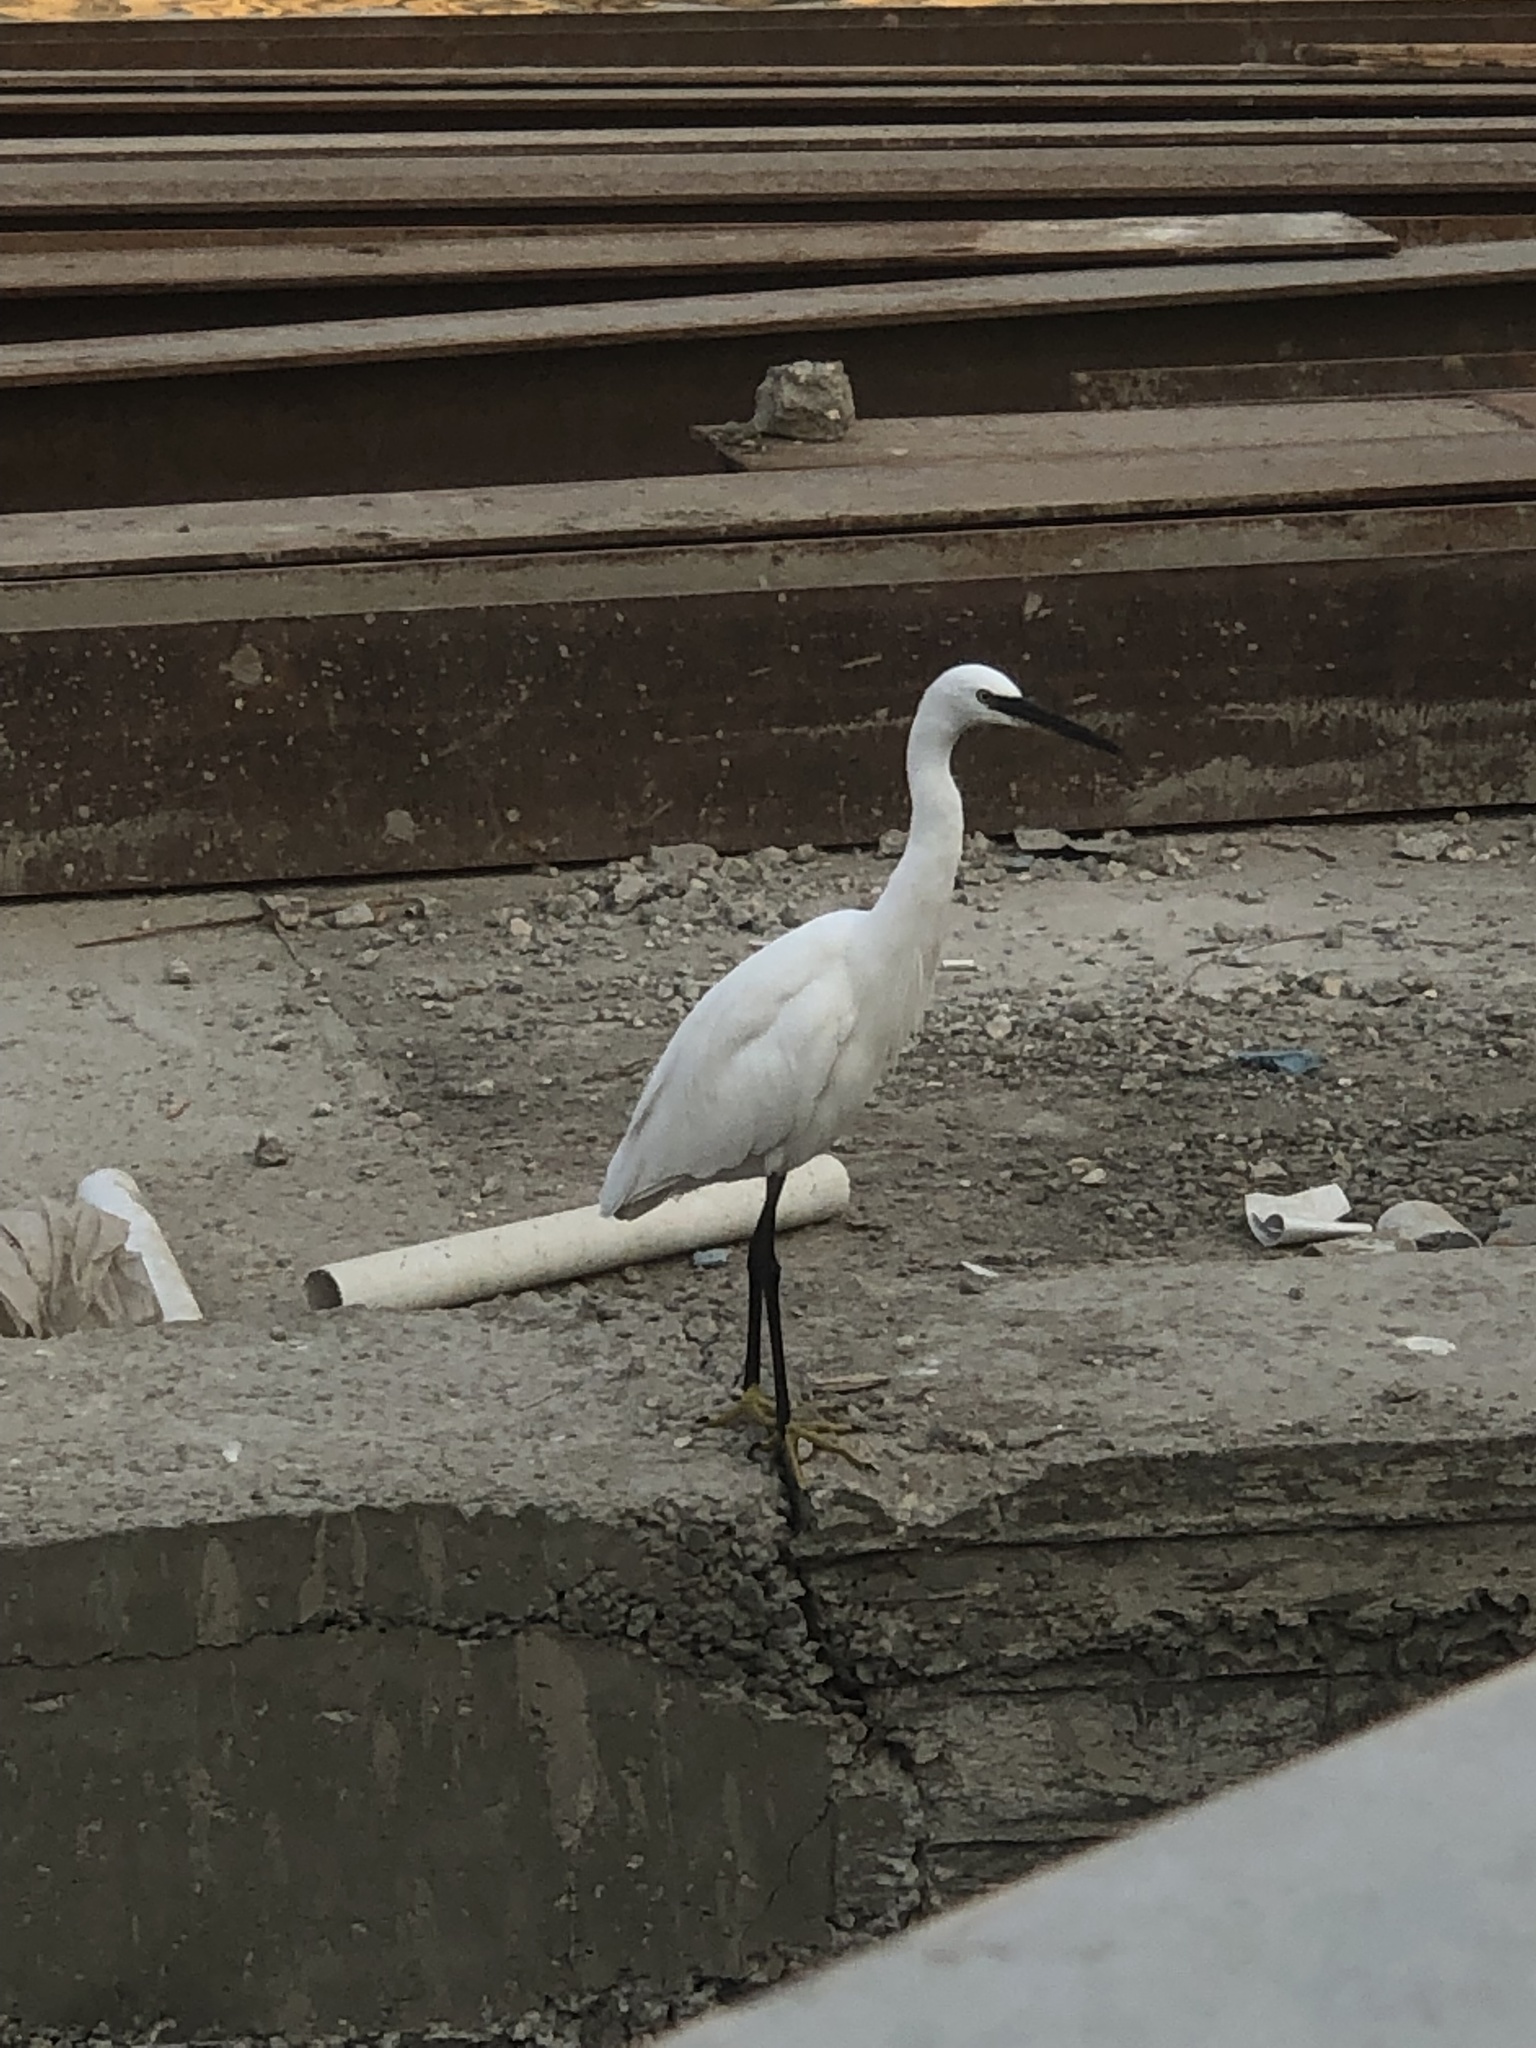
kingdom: Animalia
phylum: Chordata
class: Aves
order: Pelecaniformes
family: Ardeidae
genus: Egretta
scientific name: Egretta garzetta
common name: Little egret
